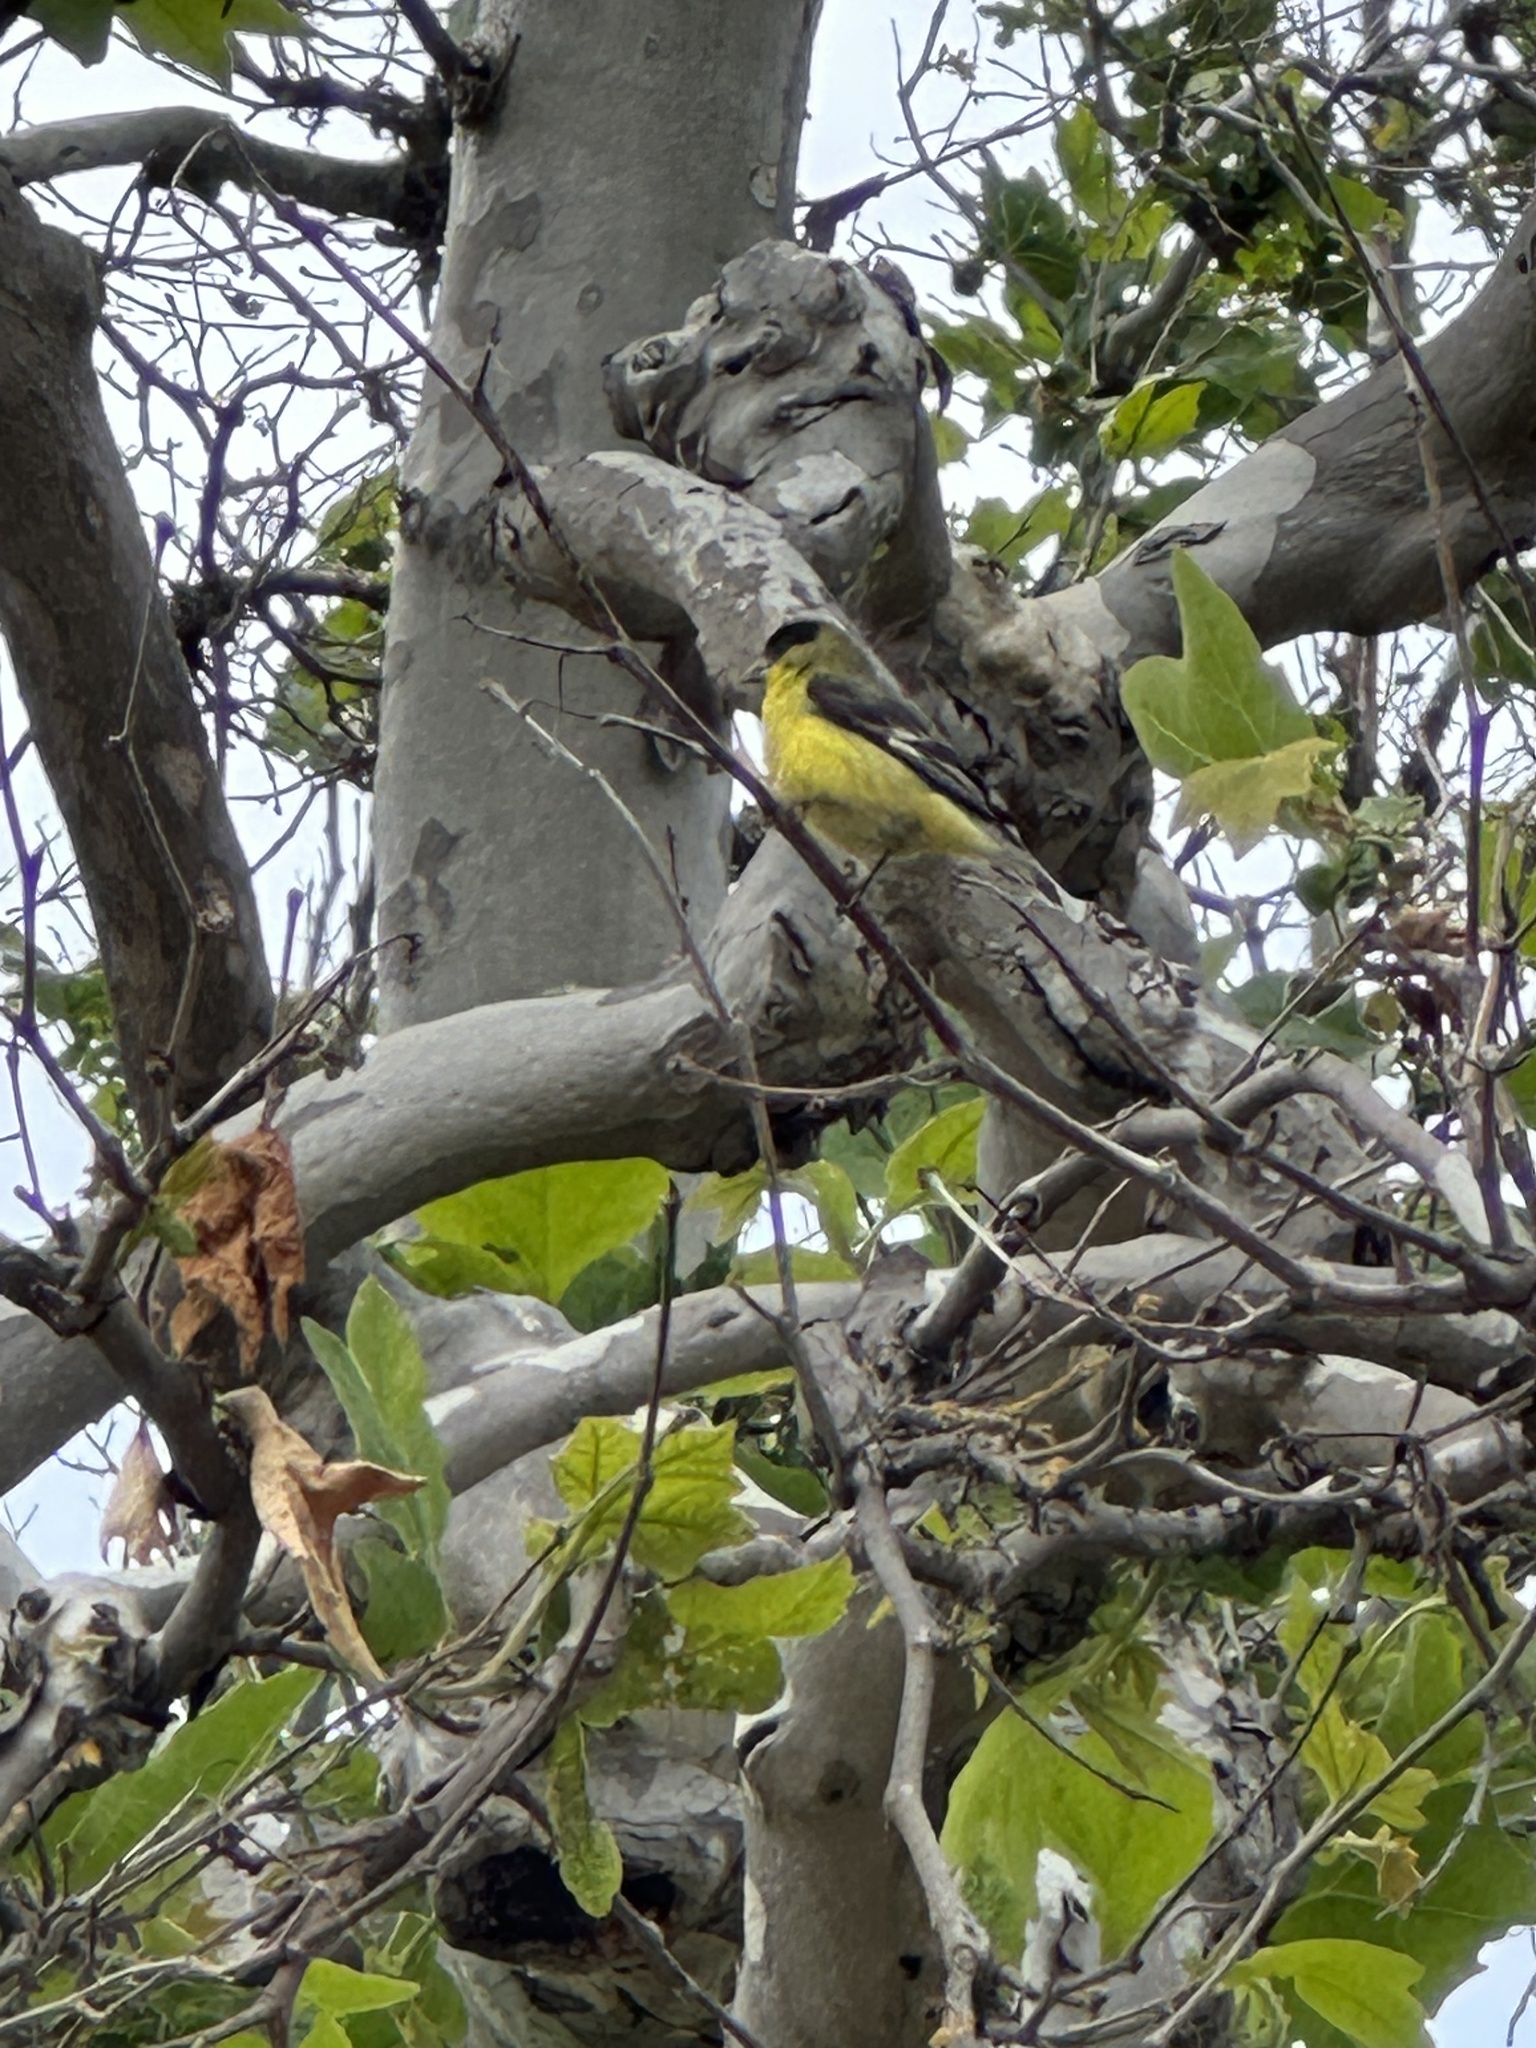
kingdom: Animalia
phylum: Chordata
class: Aves
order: Passeriformes
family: Fringillidae
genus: Spinus
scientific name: Spinus psaltria
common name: Lesser goldfinch
